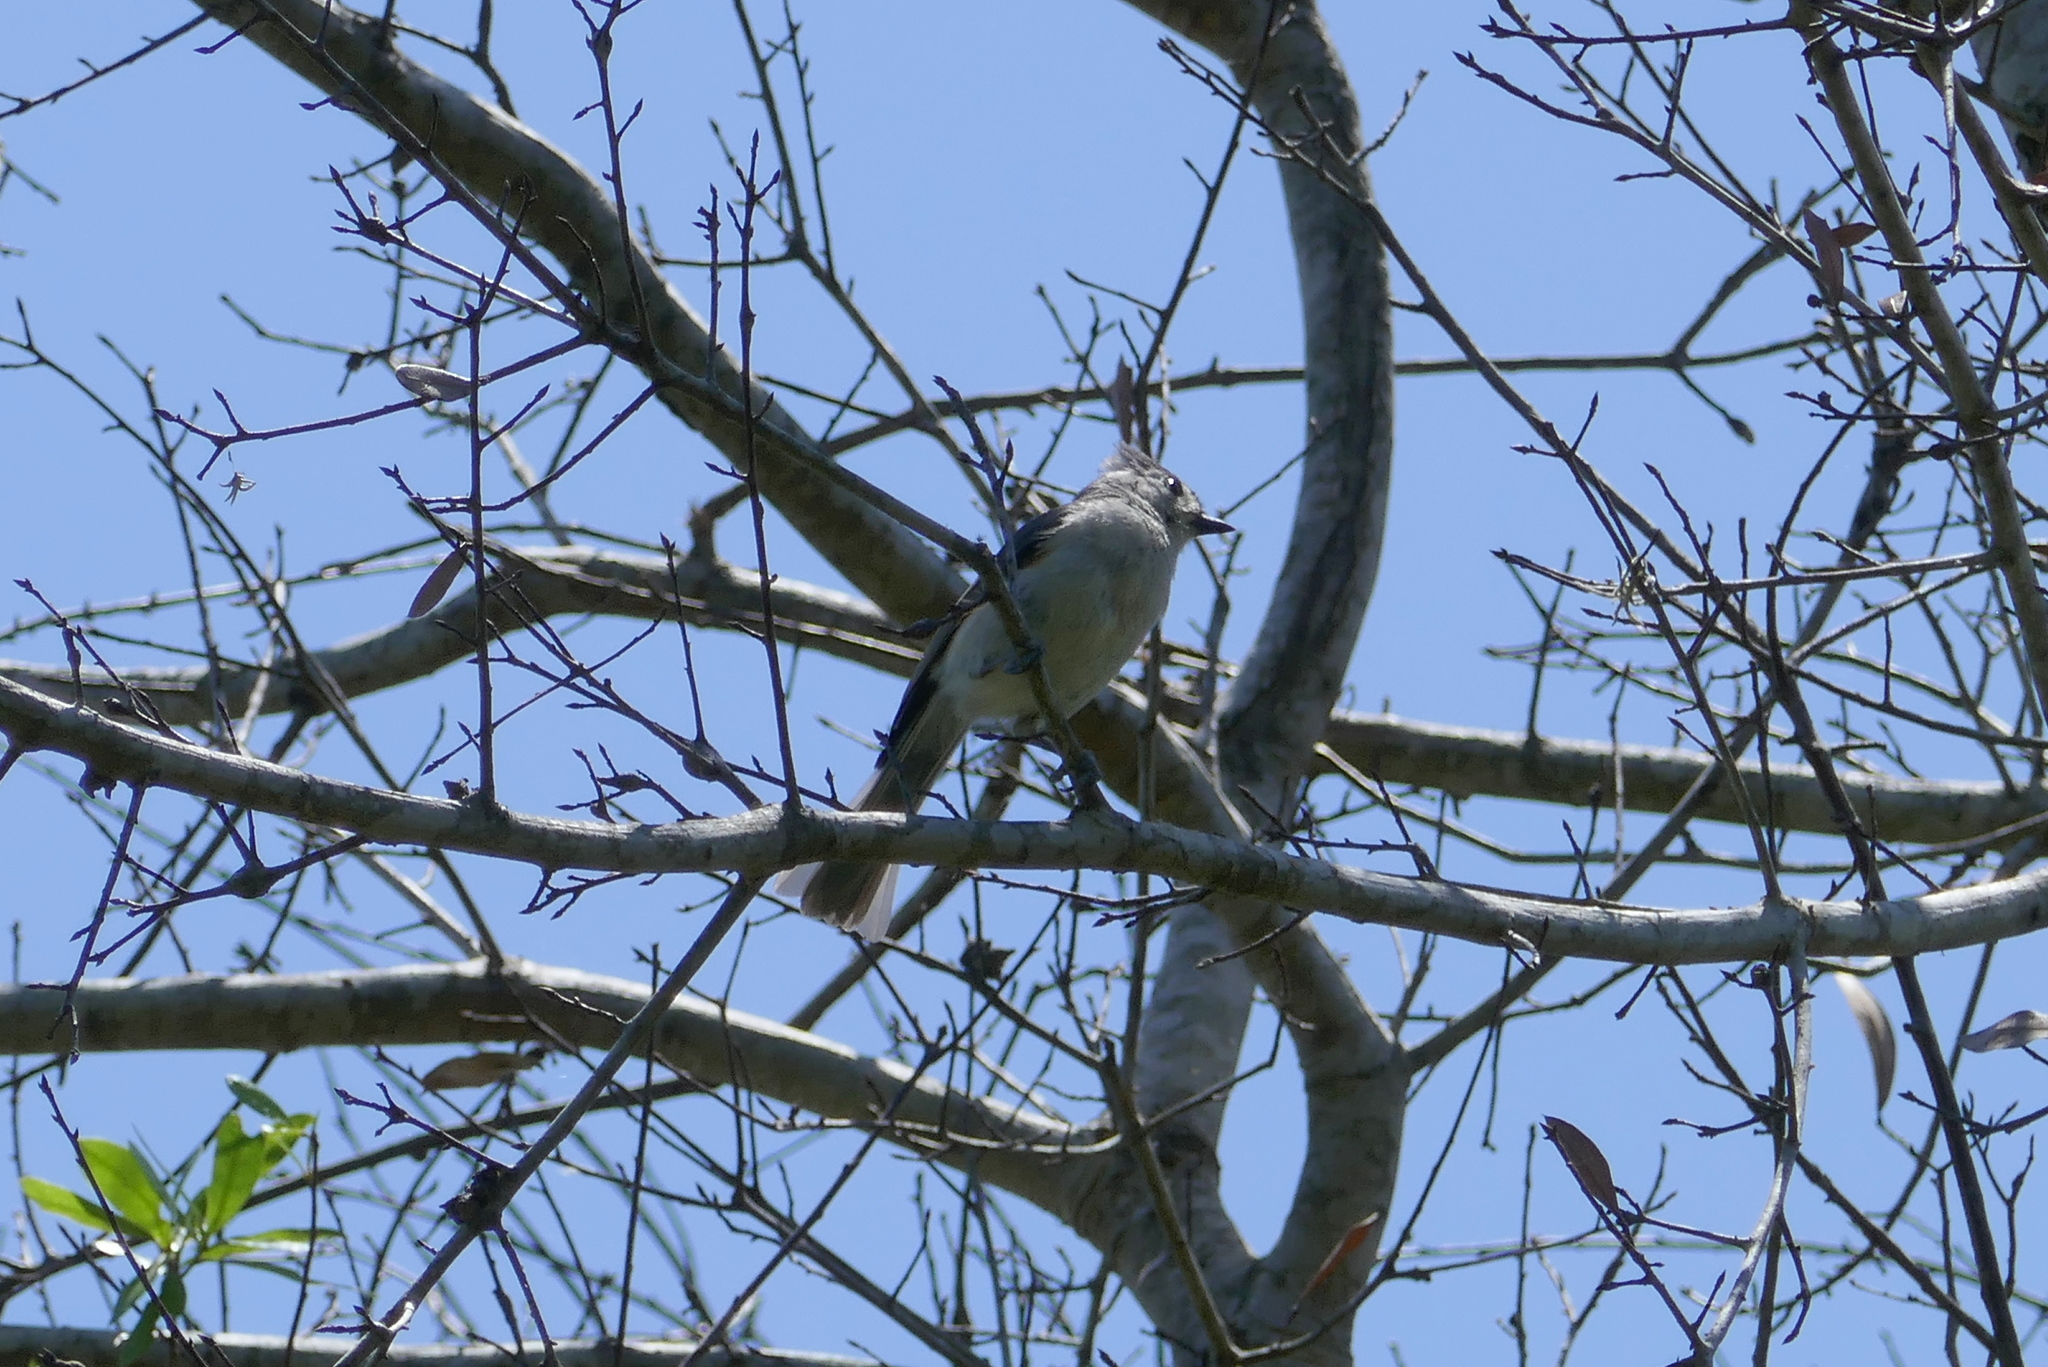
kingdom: Animalia
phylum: Chordata
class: Aves
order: Passeriformes
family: Paridae
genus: Baeolophus
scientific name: Baeolophus bicolor
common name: Tufted titmouse
